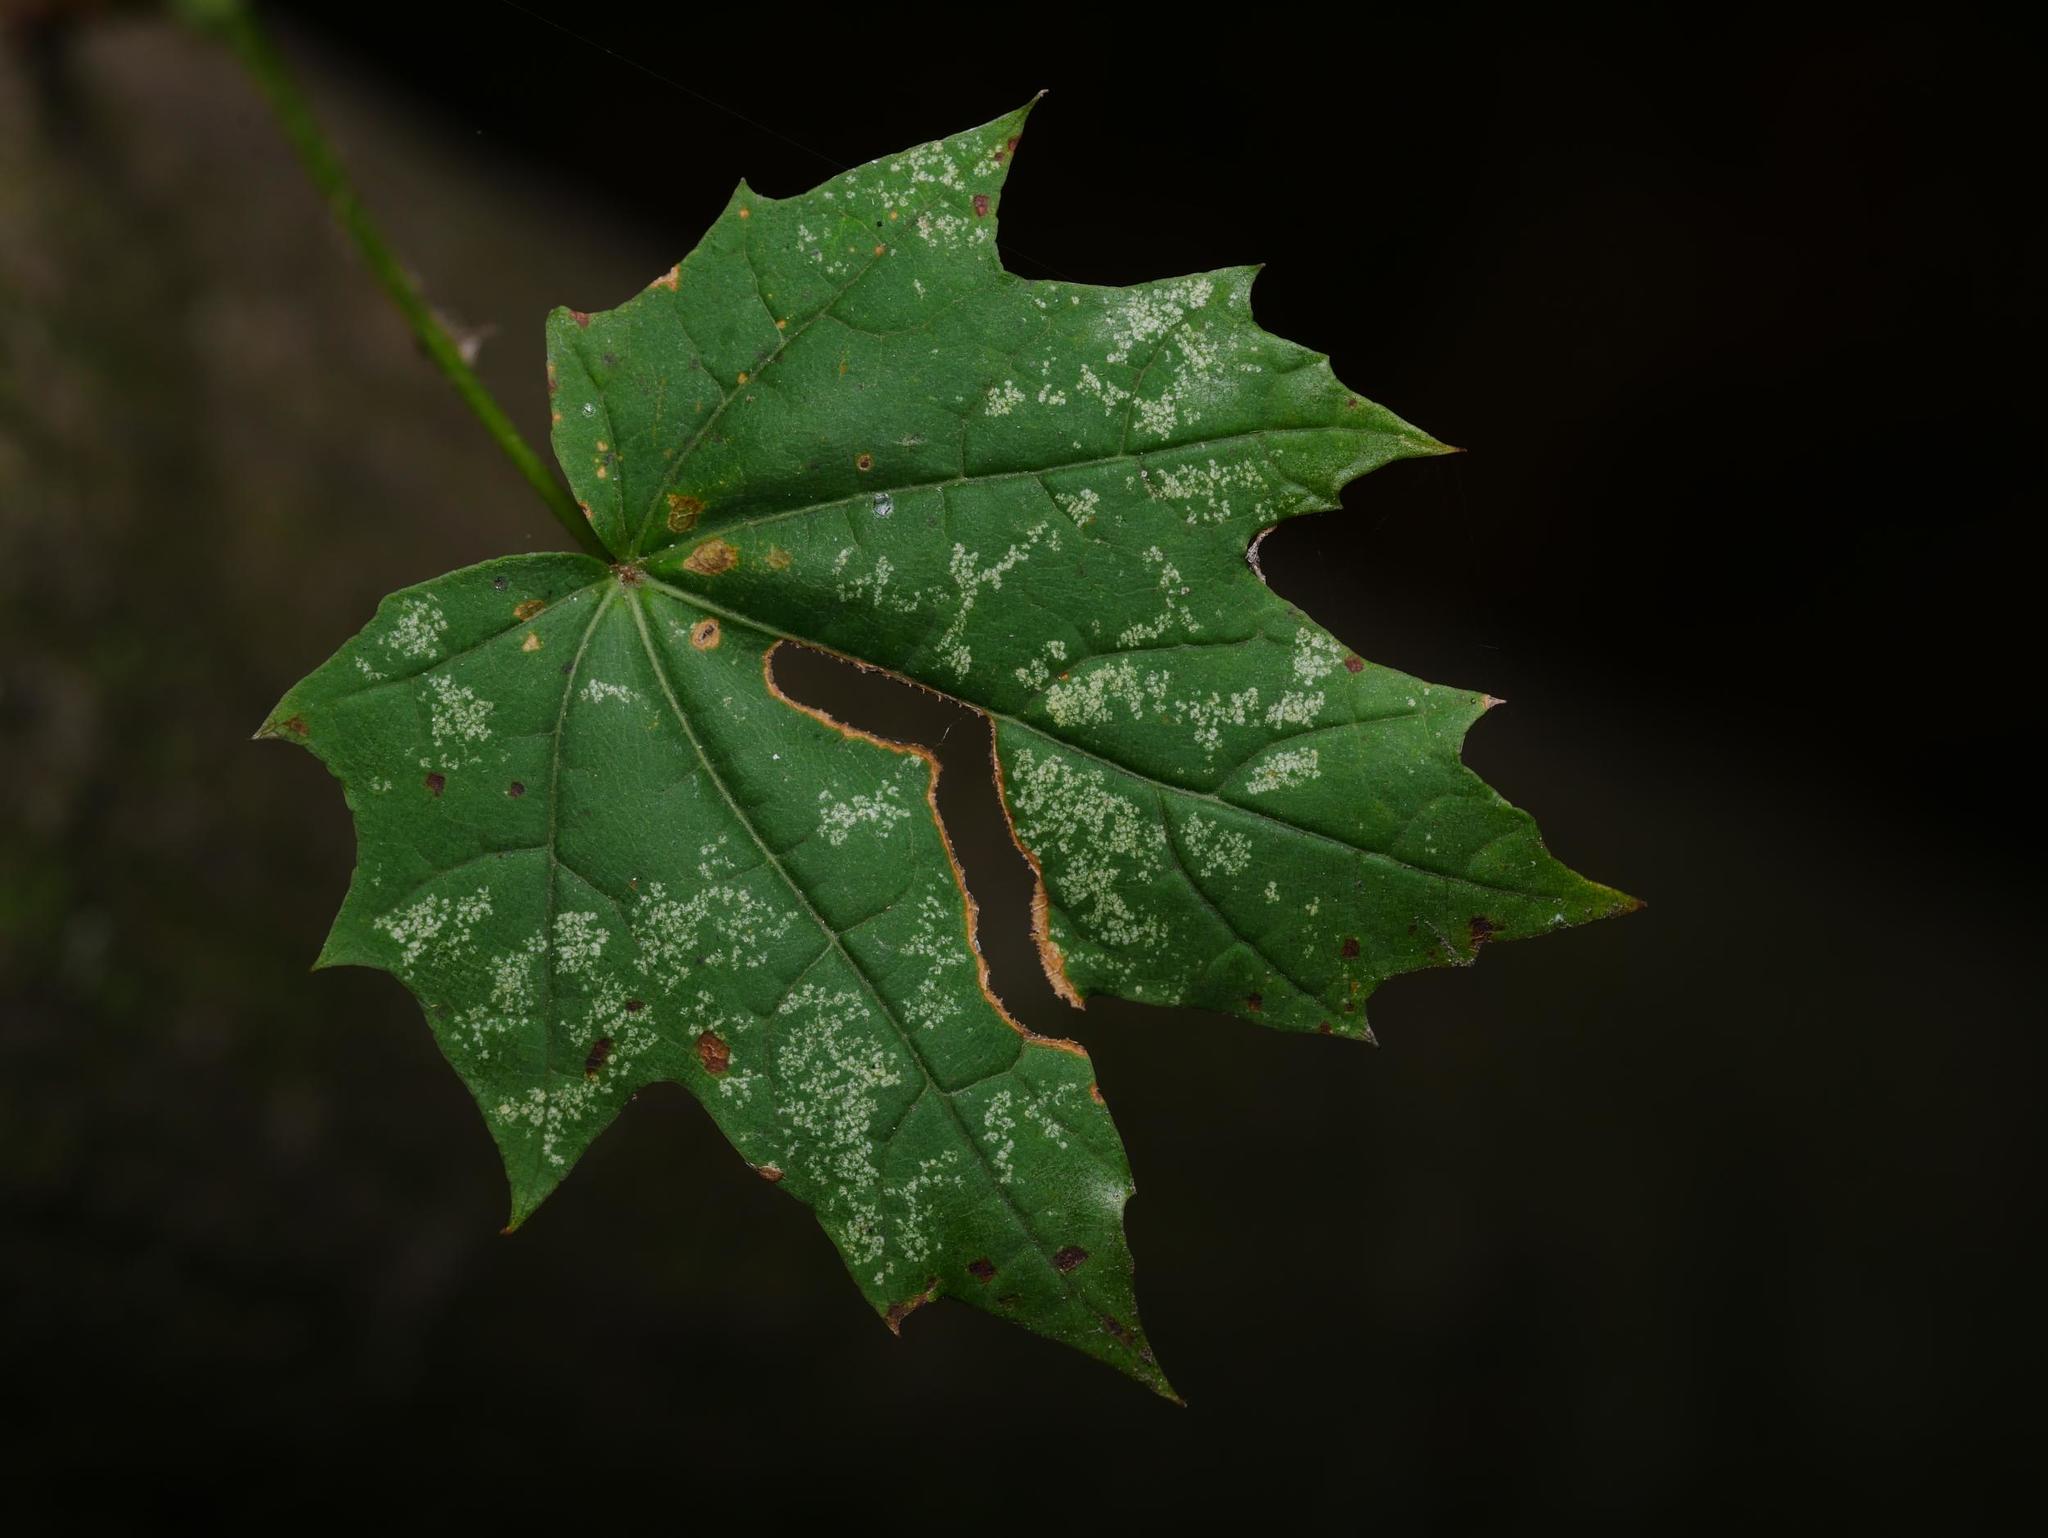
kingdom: Plantae
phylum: Tracheophyta
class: Magnoliopsida
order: Sapindales
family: Sapindaceae
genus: Acer
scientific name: Acer platanoides
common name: Norway maple
